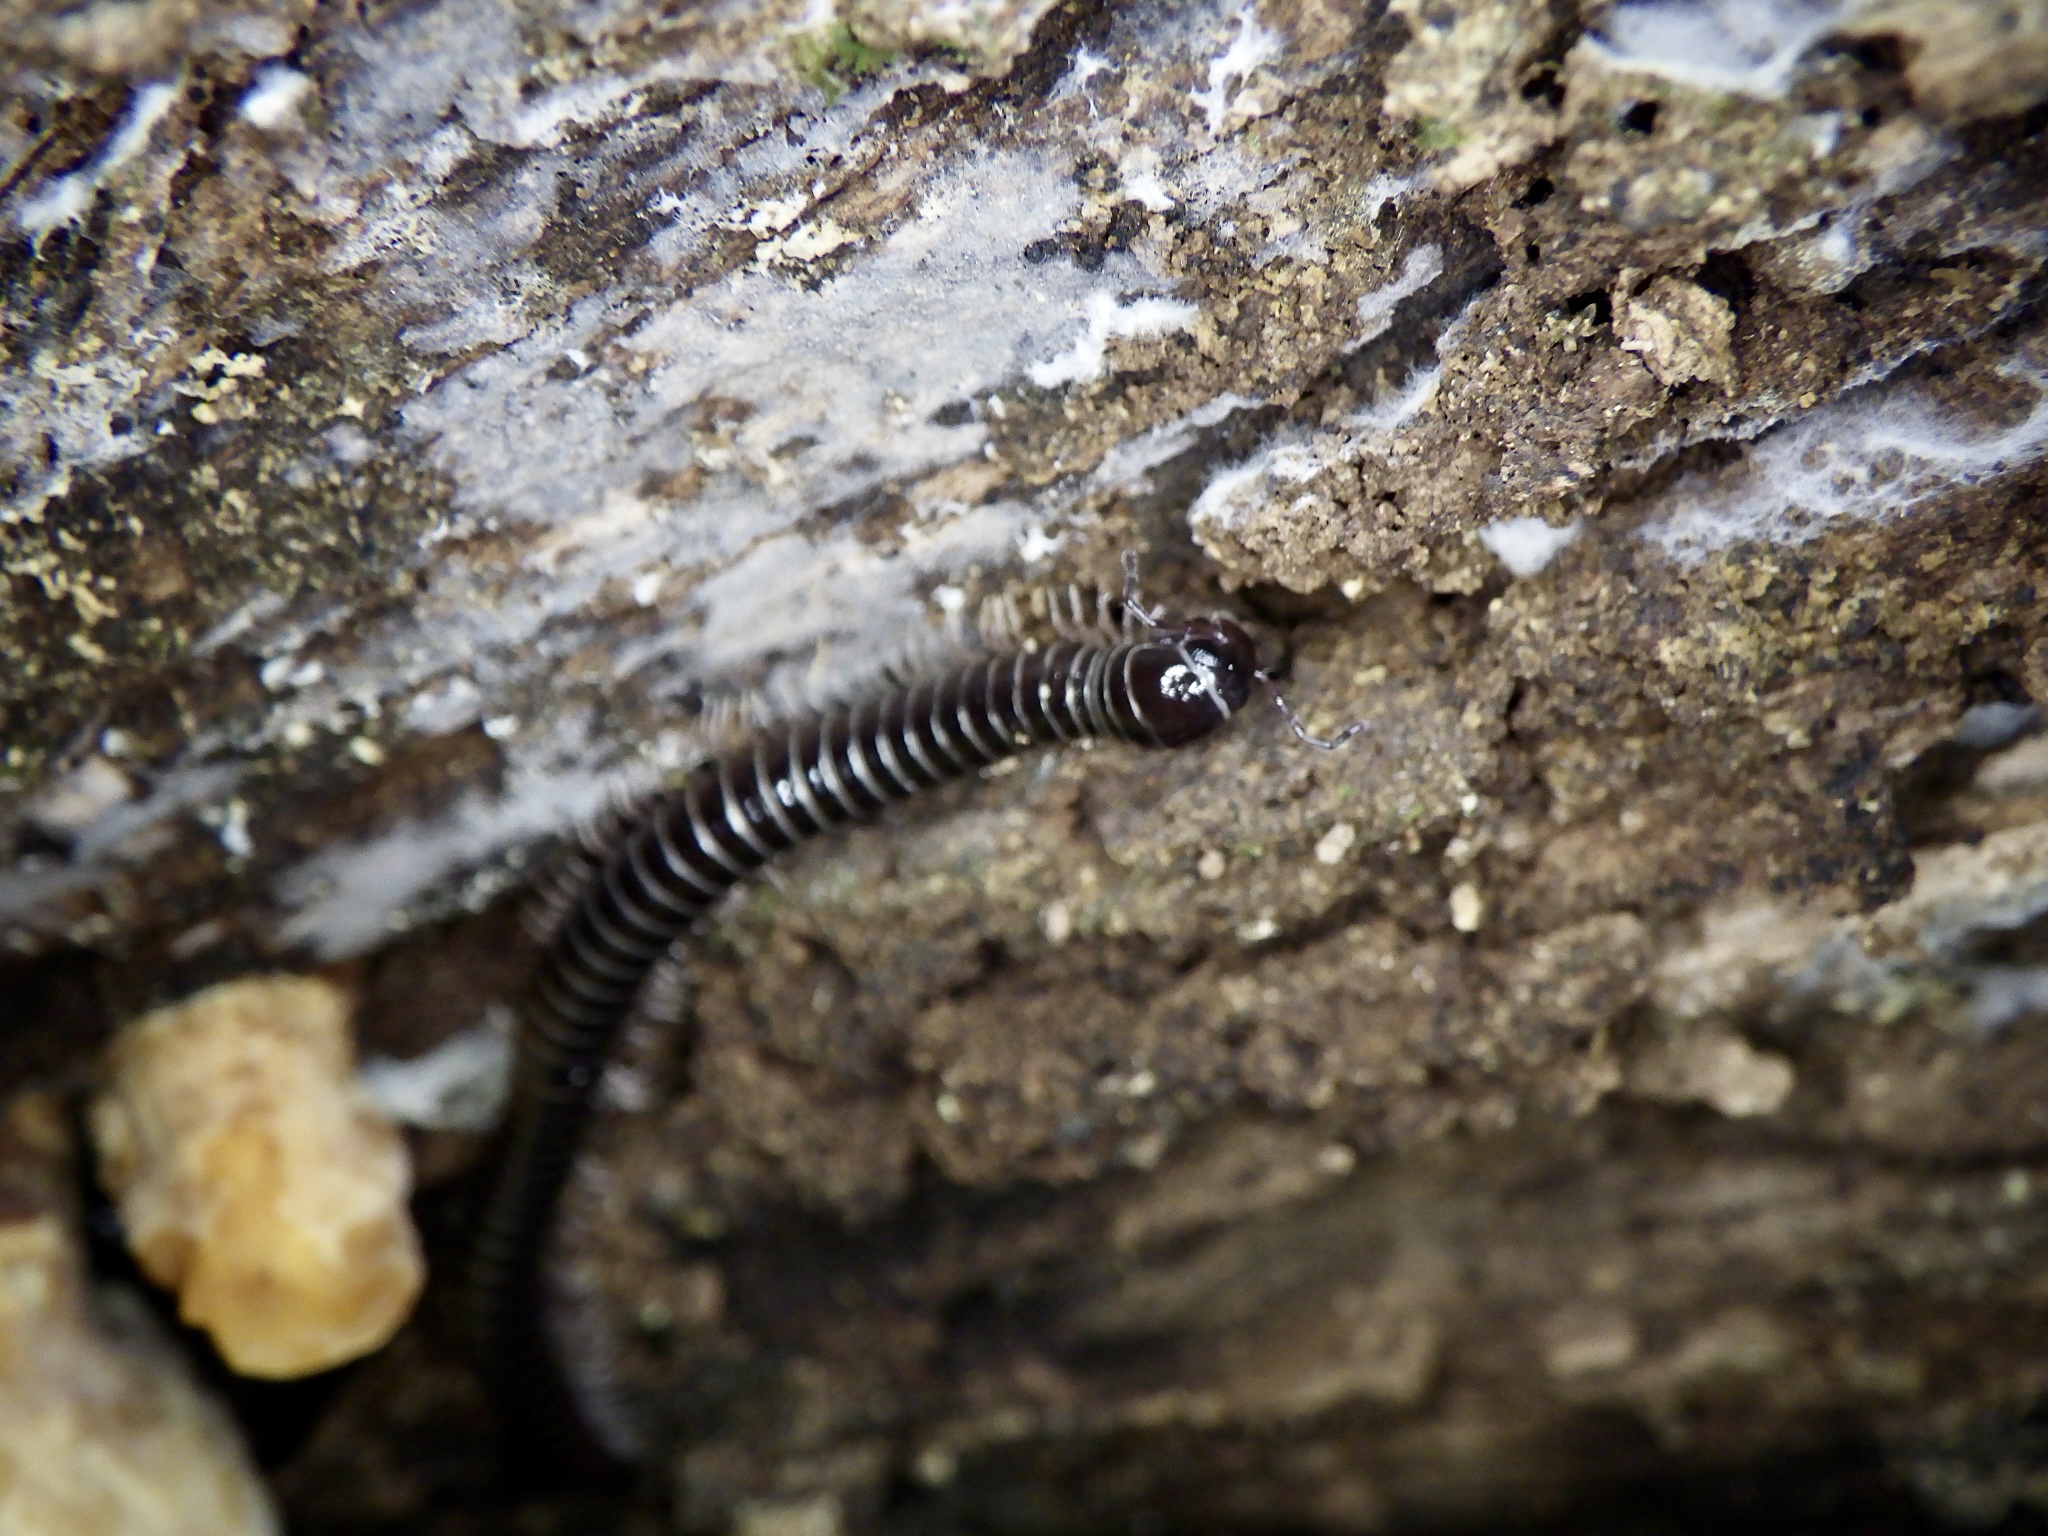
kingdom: Animalia
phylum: Arthropoda
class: Diplopoda
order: Julida
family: Parajulidae
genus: Karteroiulus
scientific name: Karteroiulus niger
